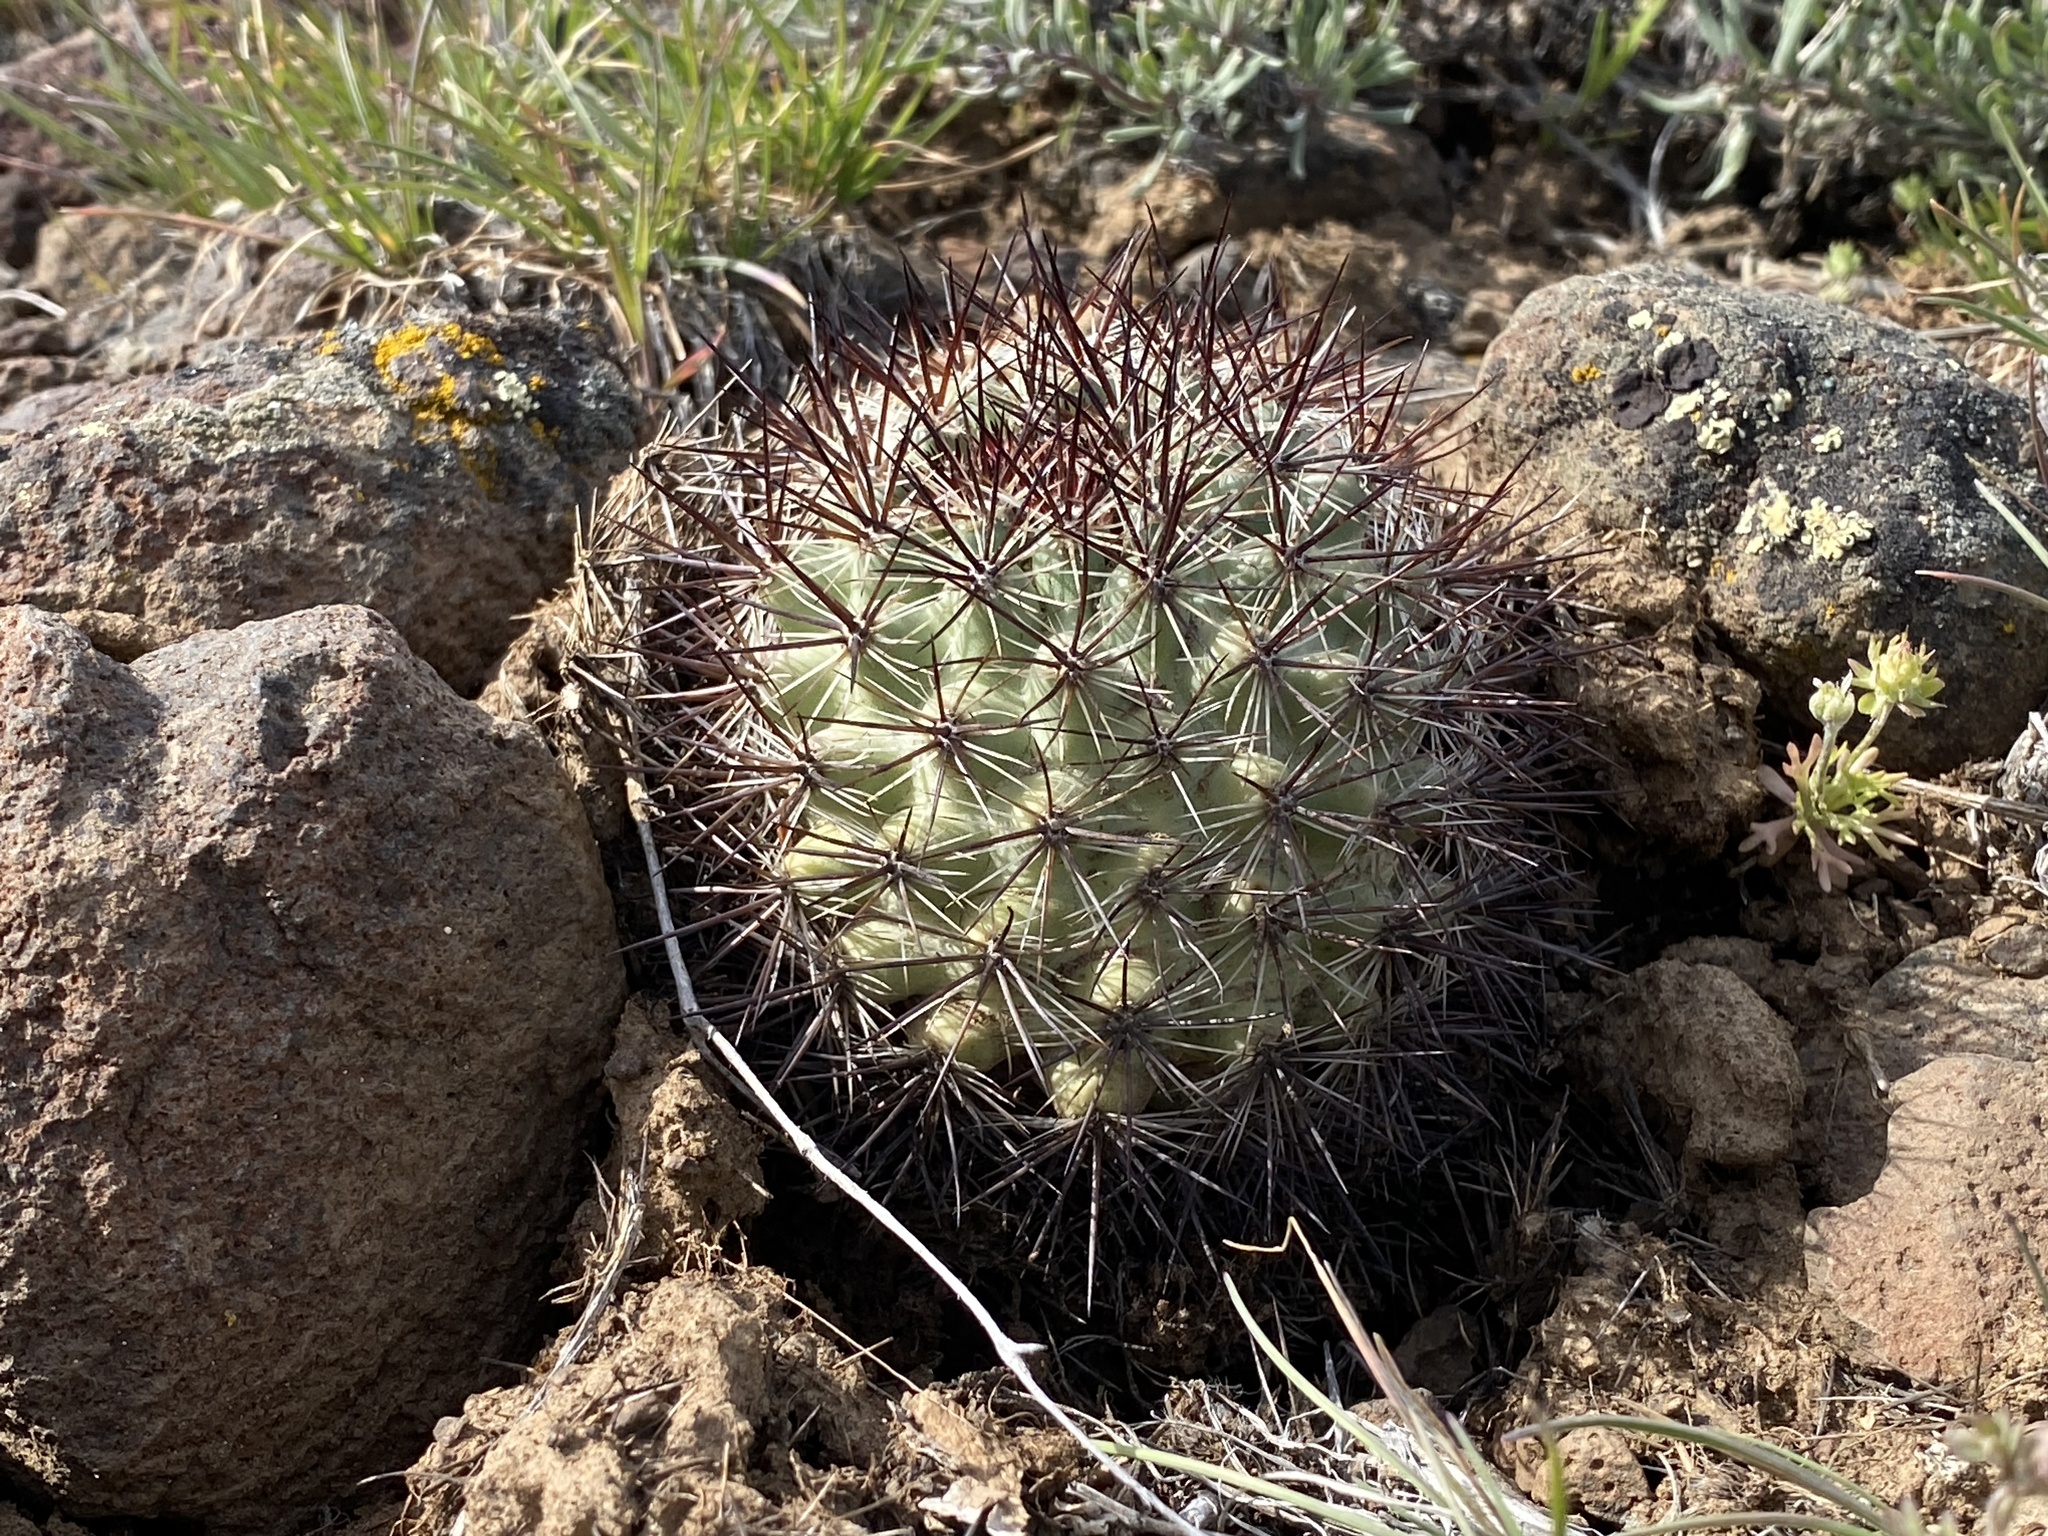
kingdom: Plantae
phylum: Tracheophyta
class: Magnoliopsida
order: Caryophyllales
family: Cactaceae
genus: Pediocactus
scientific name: Pediocactus nigrispinus
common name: Simpson's hedgehog cactus
